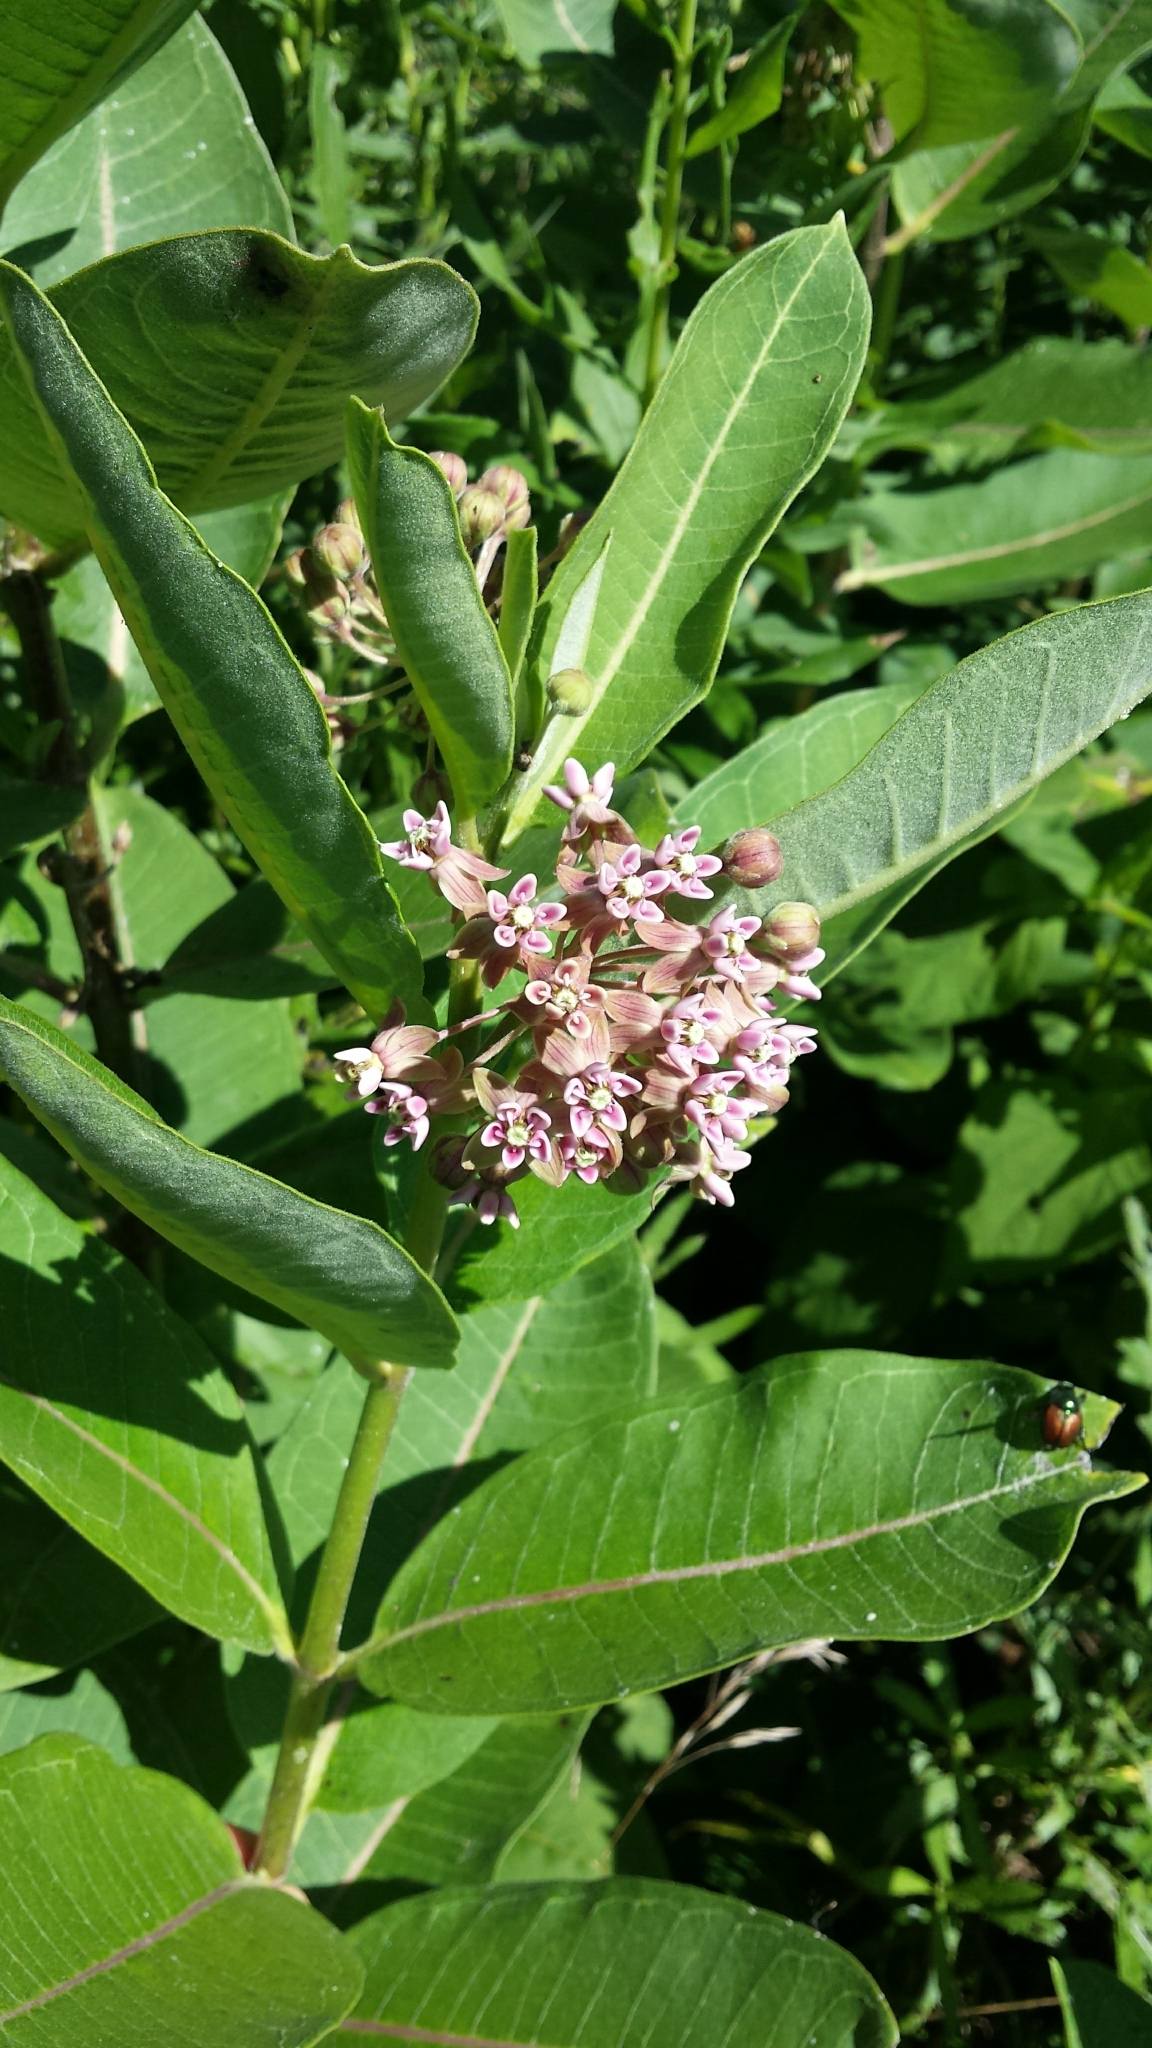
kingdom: Plantae
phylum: Tracheophyta
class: Magnoliopsida
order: Gentianales
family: Apocynaceae
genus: Asclepias
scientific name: Asclepias syriaca
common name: Common milkweed
